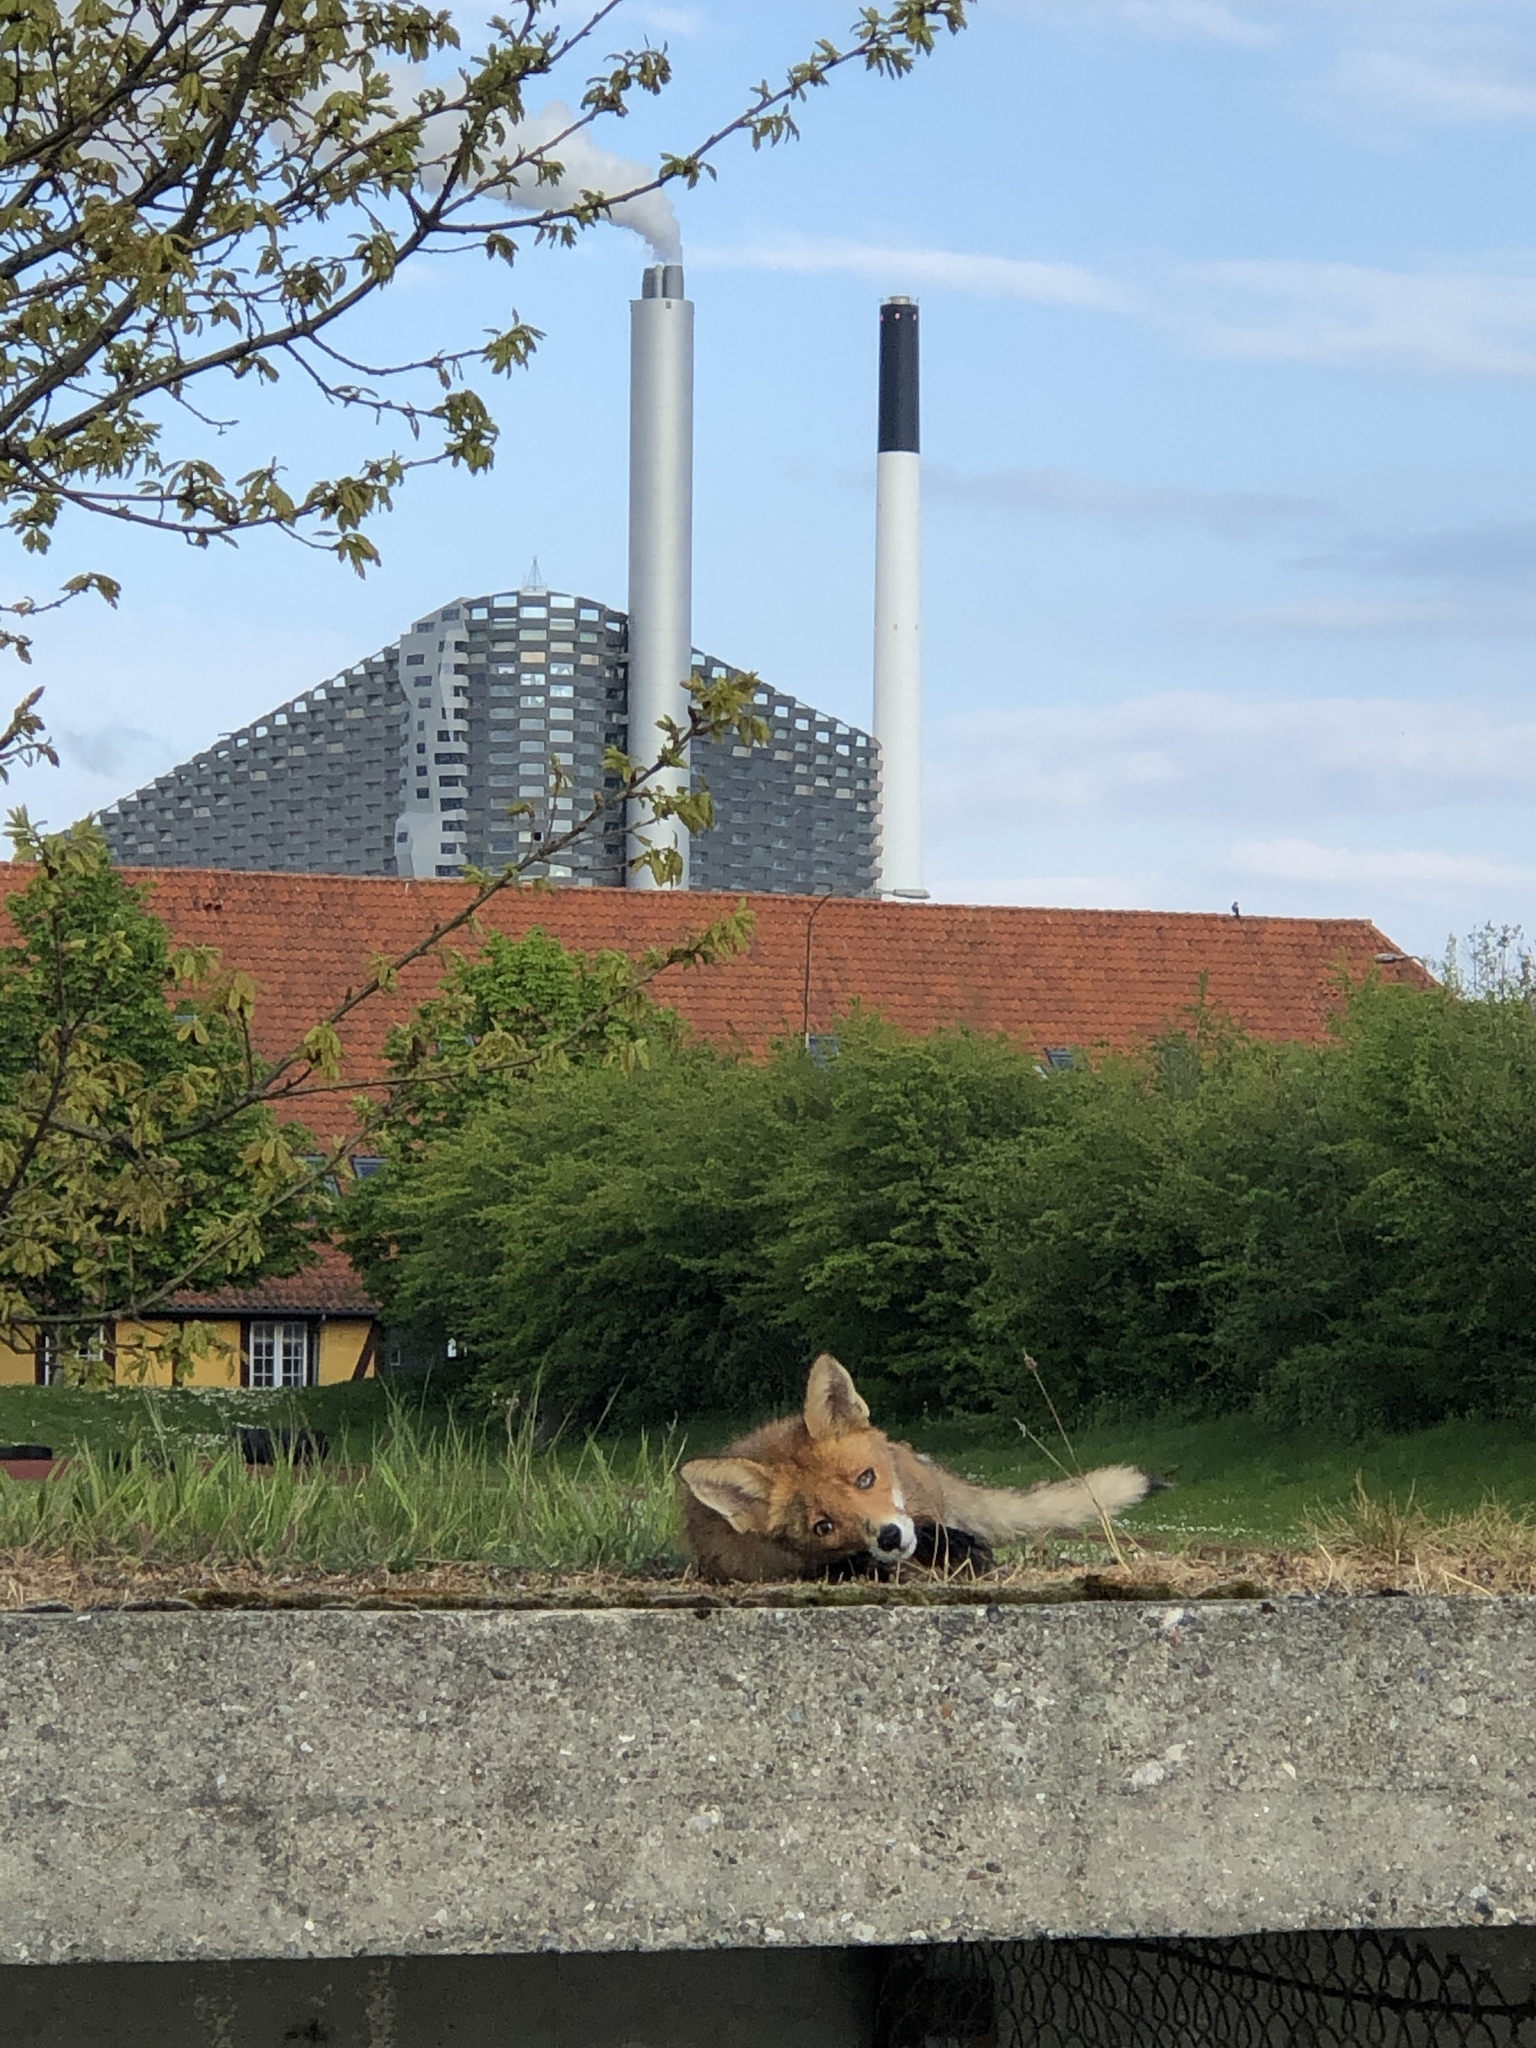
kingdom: Animalia
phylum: Chordata
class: Mammalia
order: Carnivora
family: Canidae
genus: Vulpes
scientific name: Vulpes vulpes
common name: Red fox
